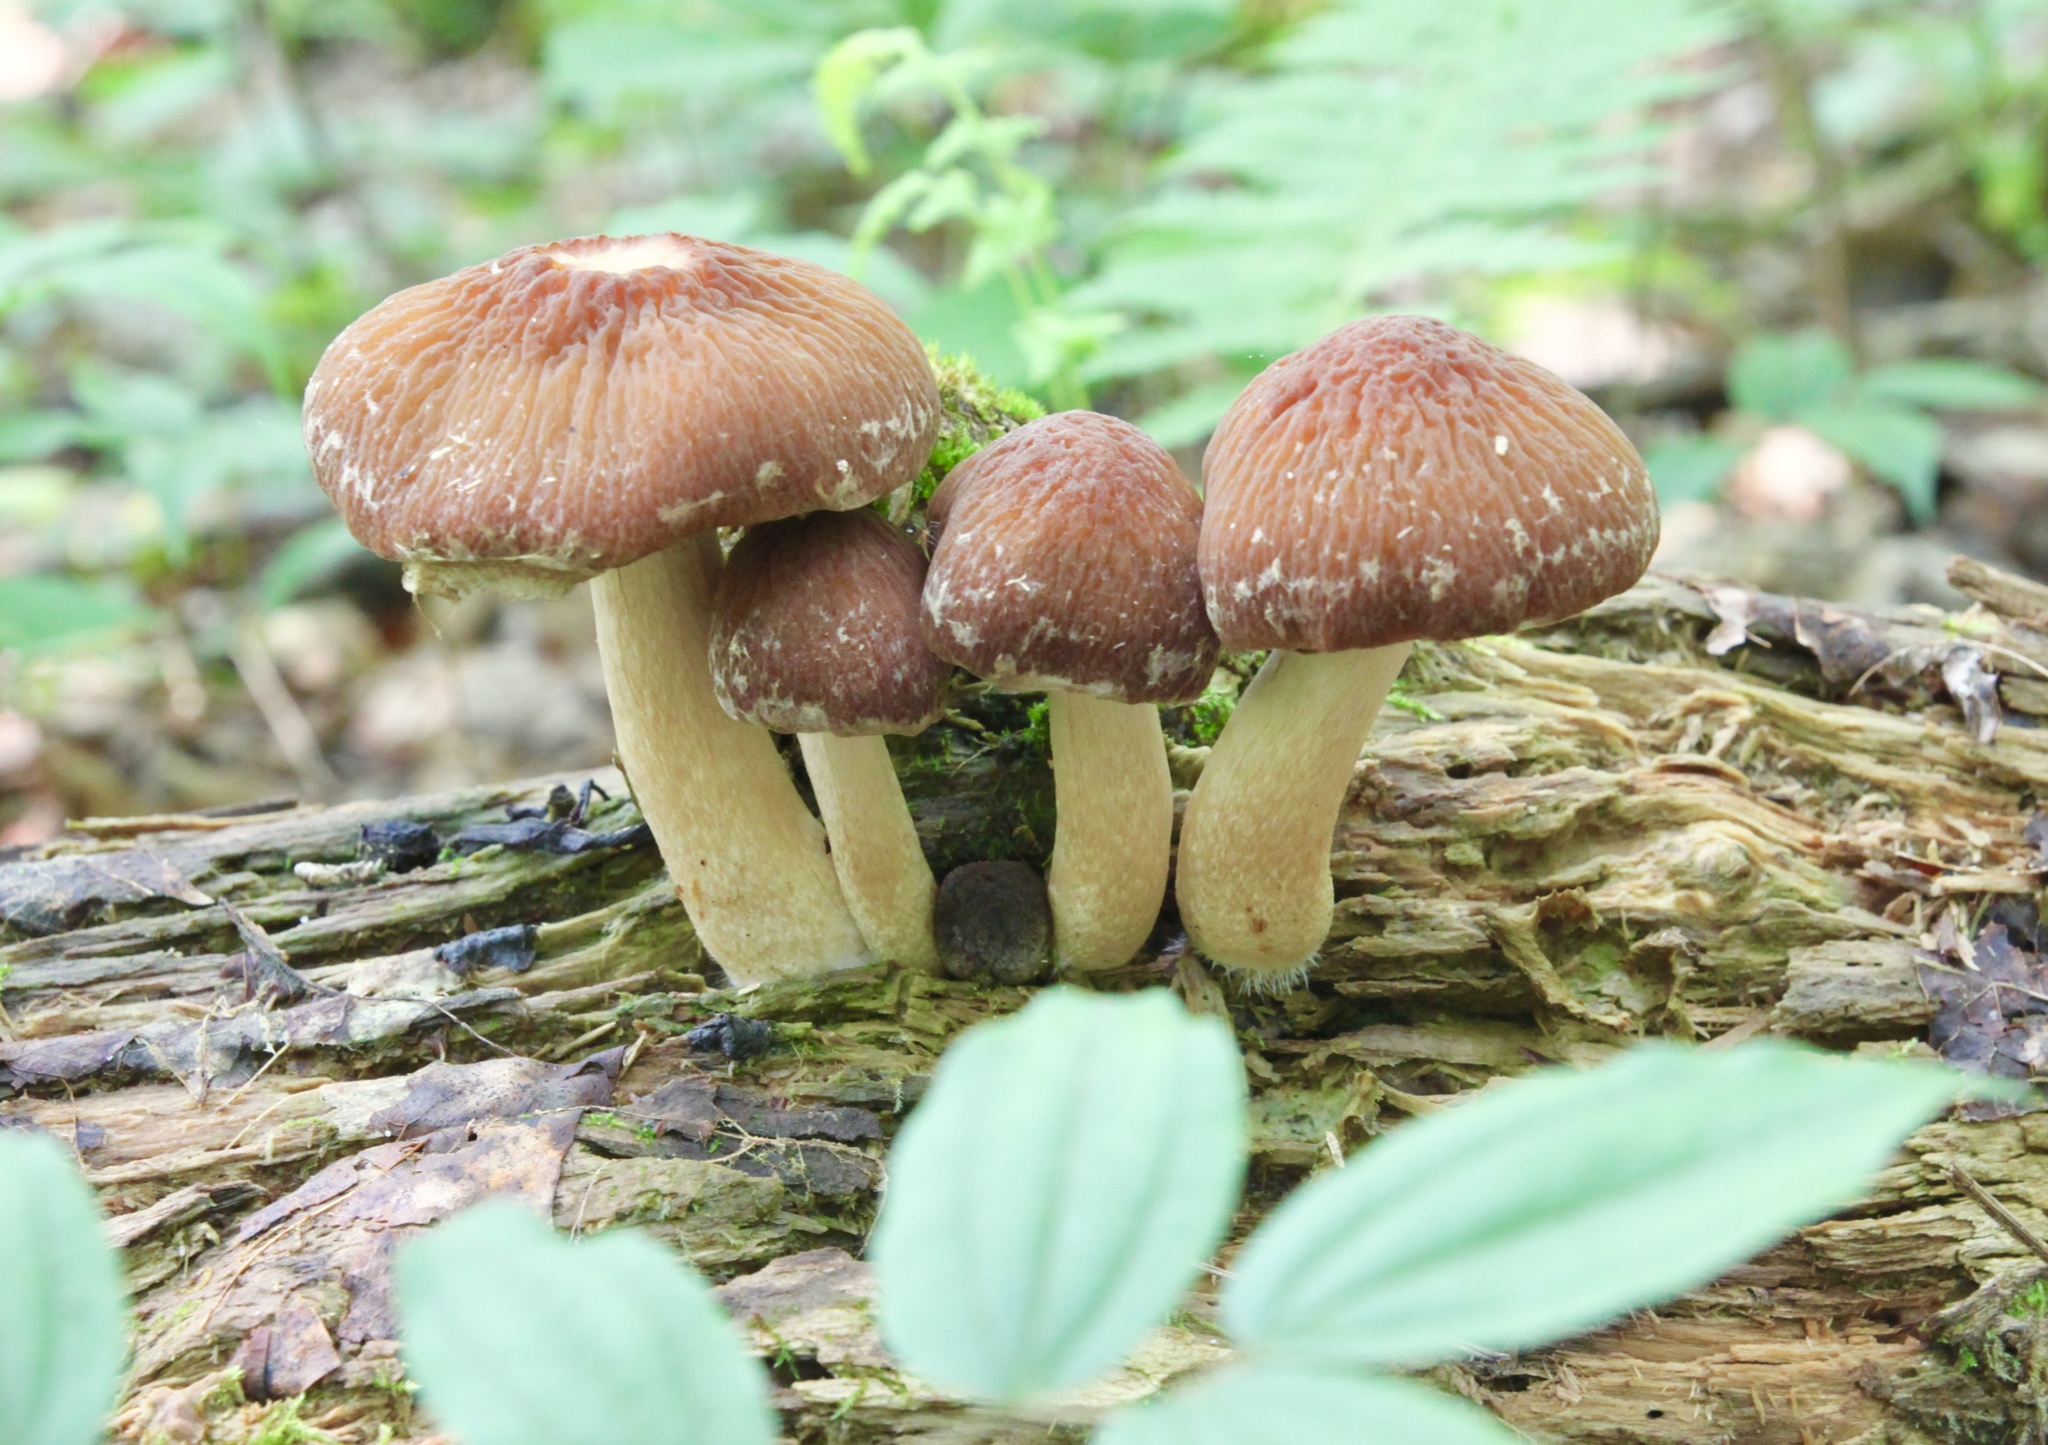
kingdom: Fungi
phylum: Basidiomycota
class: Agaricomycetes
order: Agaricales
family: Psathyrellaceae
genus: Typhrasa
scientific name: Typhrasa gossypina
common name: Wrinkled psathyrella
